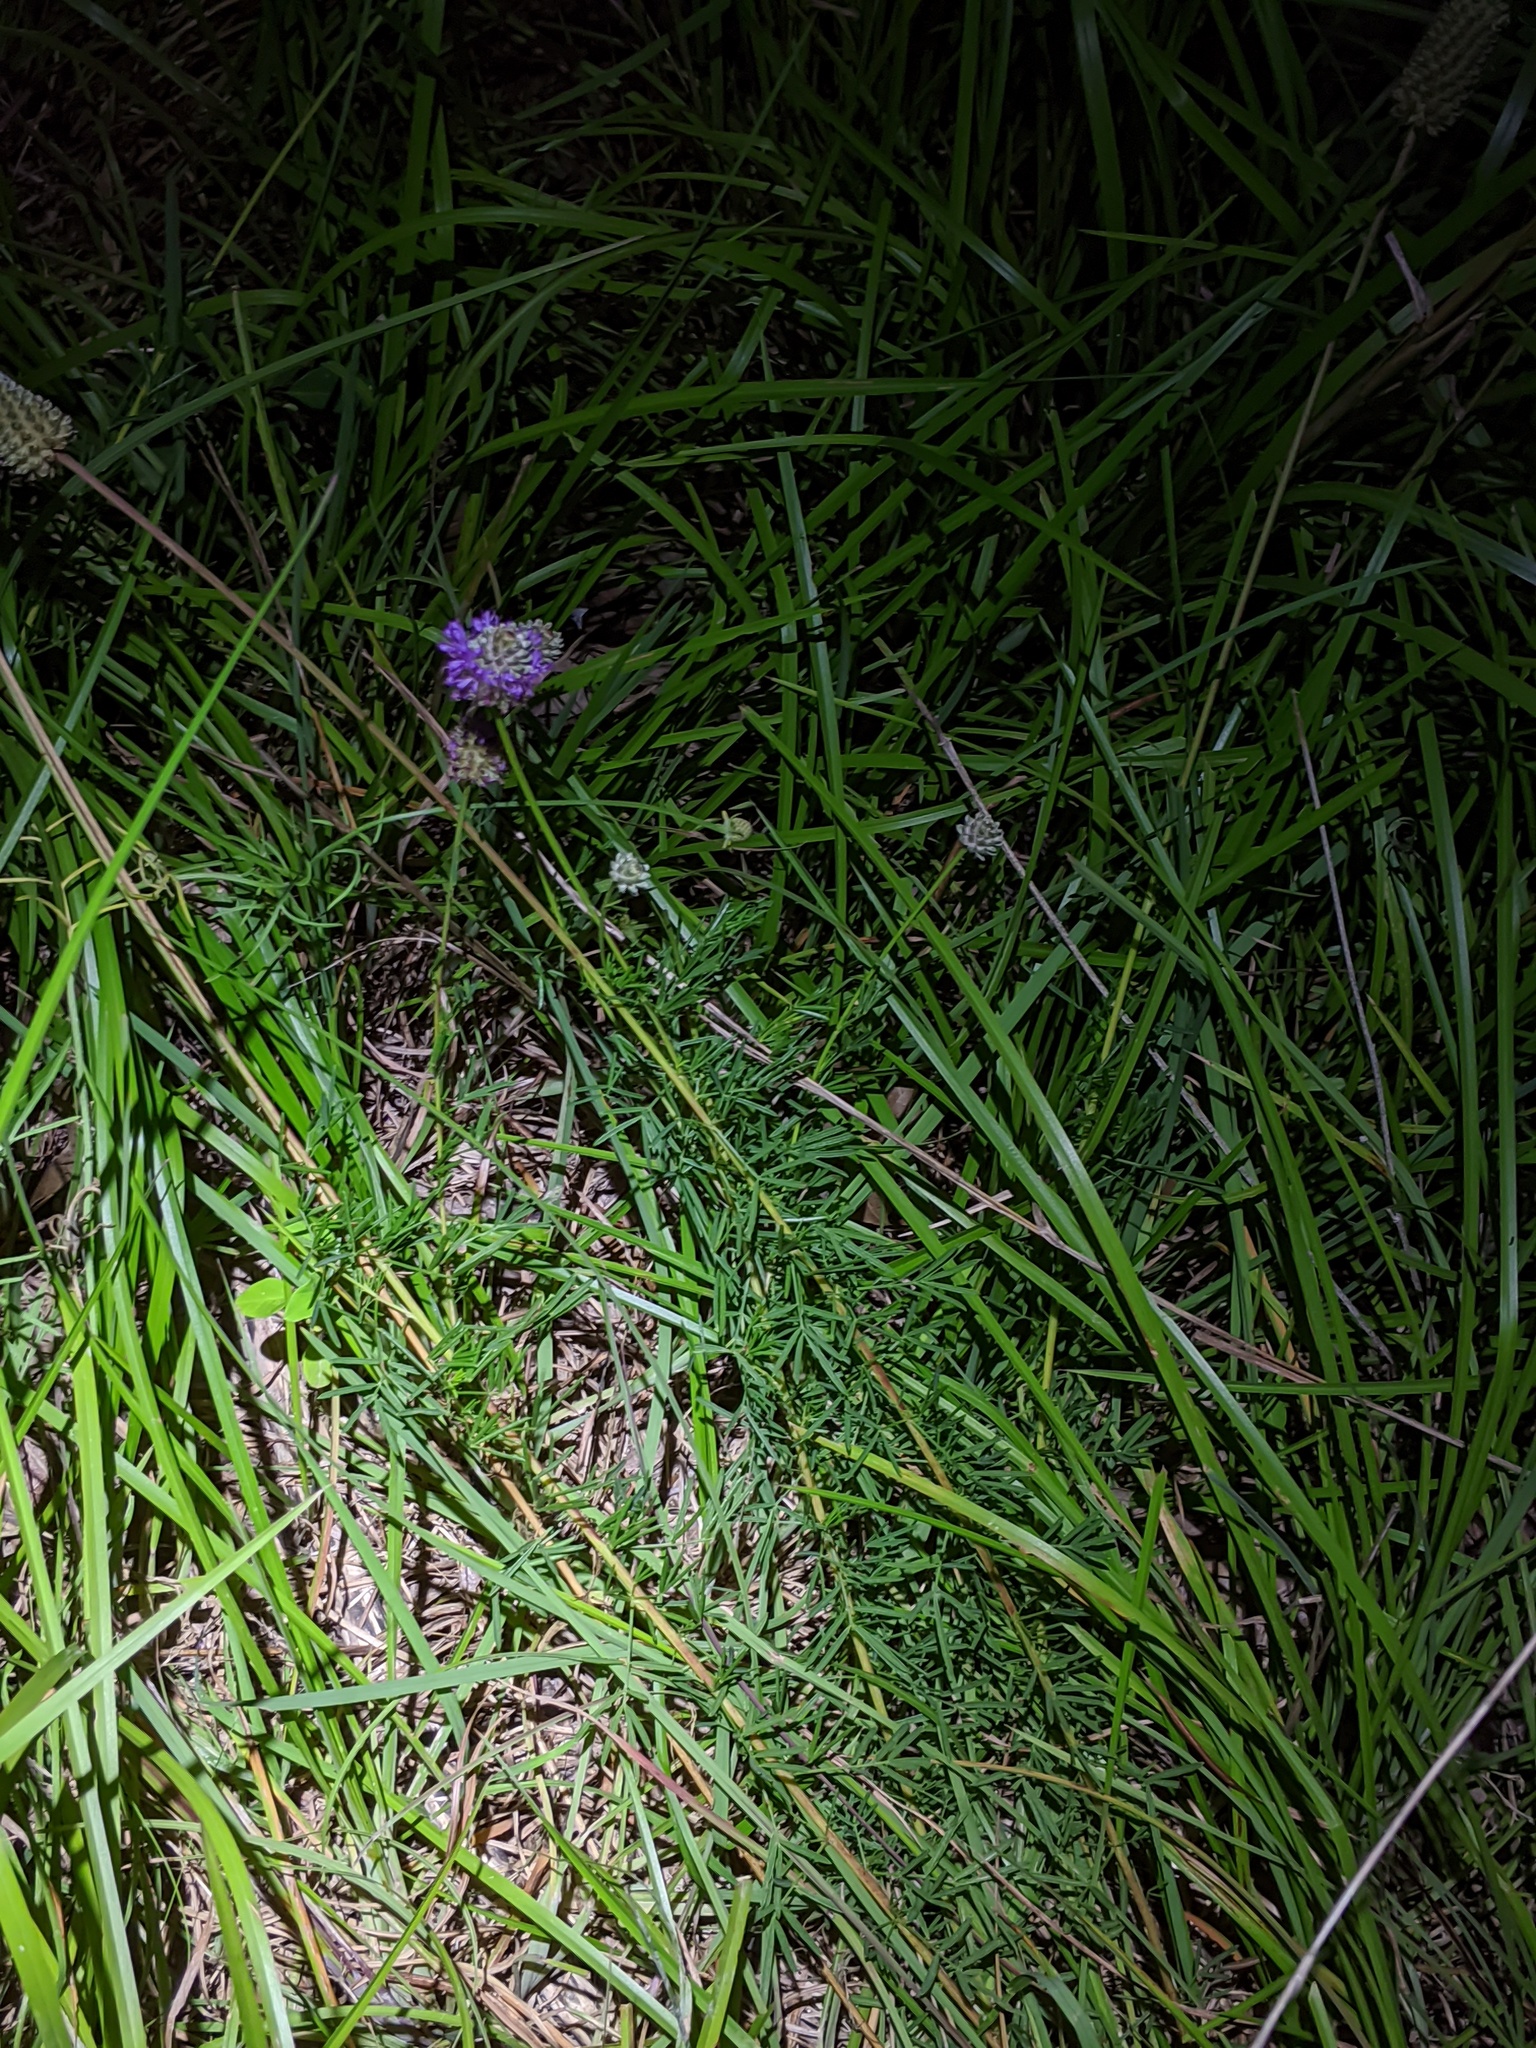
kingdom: Plantae
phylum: Tracheophyta
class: Magnoliopsida
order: Fabales
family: Fabaceae
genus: Dalea
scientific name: Dalea compacta
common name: Compact prairie-clover
